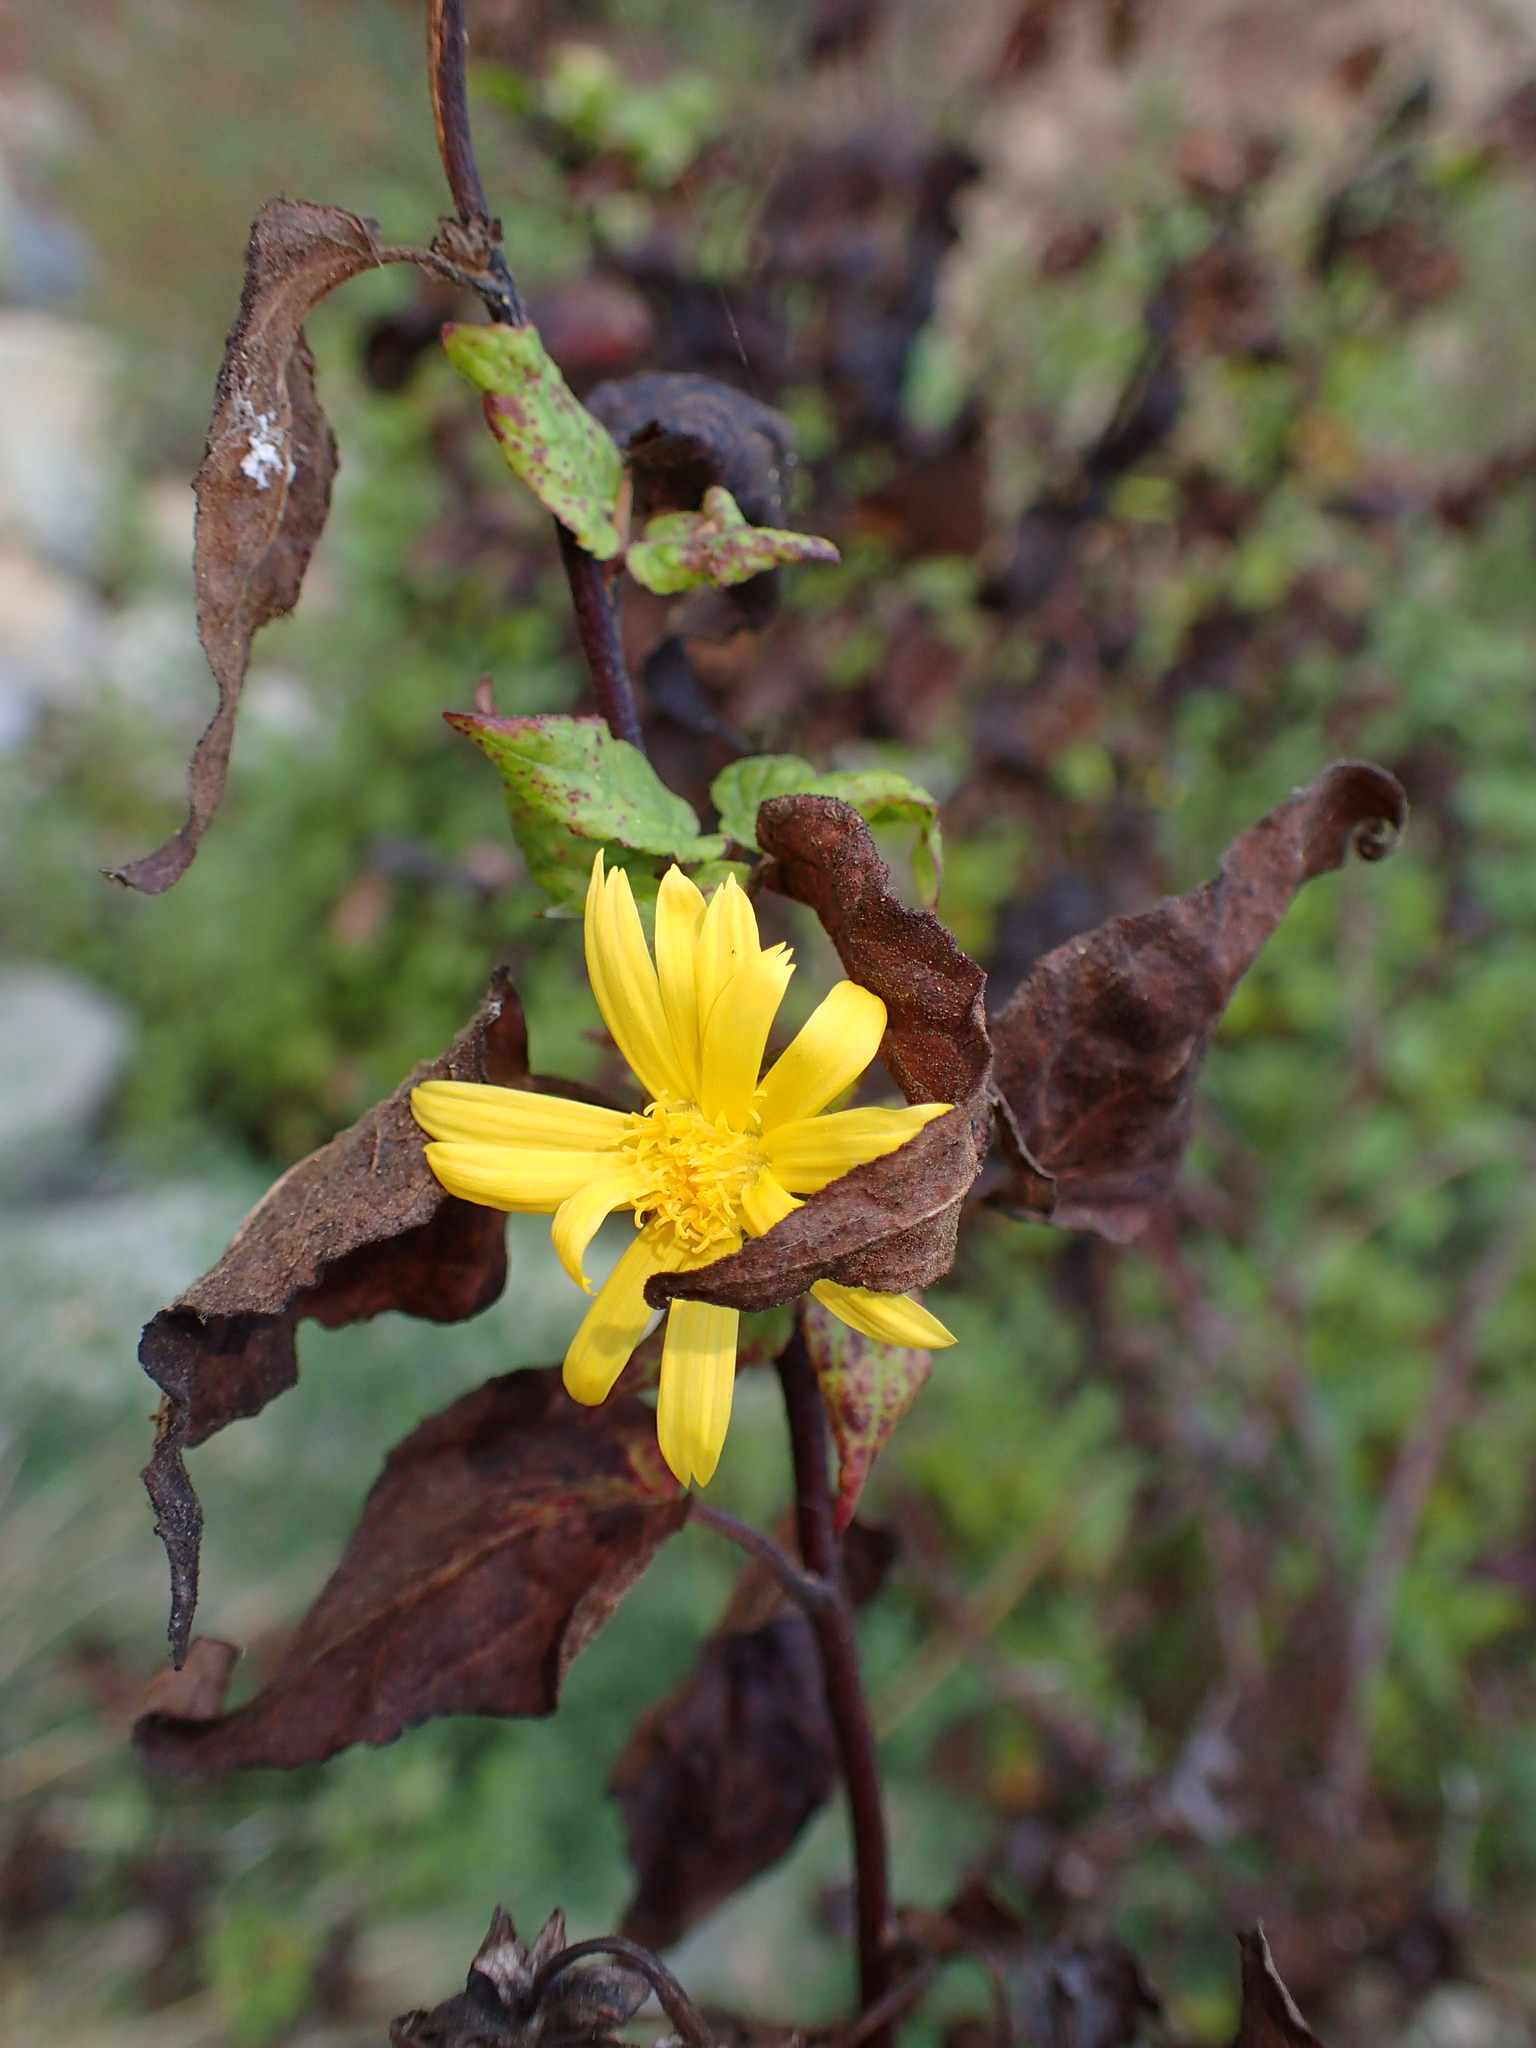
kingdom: Plantae
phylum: Tracheophyta
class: Magnoliopsida
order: Asterales
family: Asteraceae
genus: Venegasia
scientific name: Venegasia carpesioides
